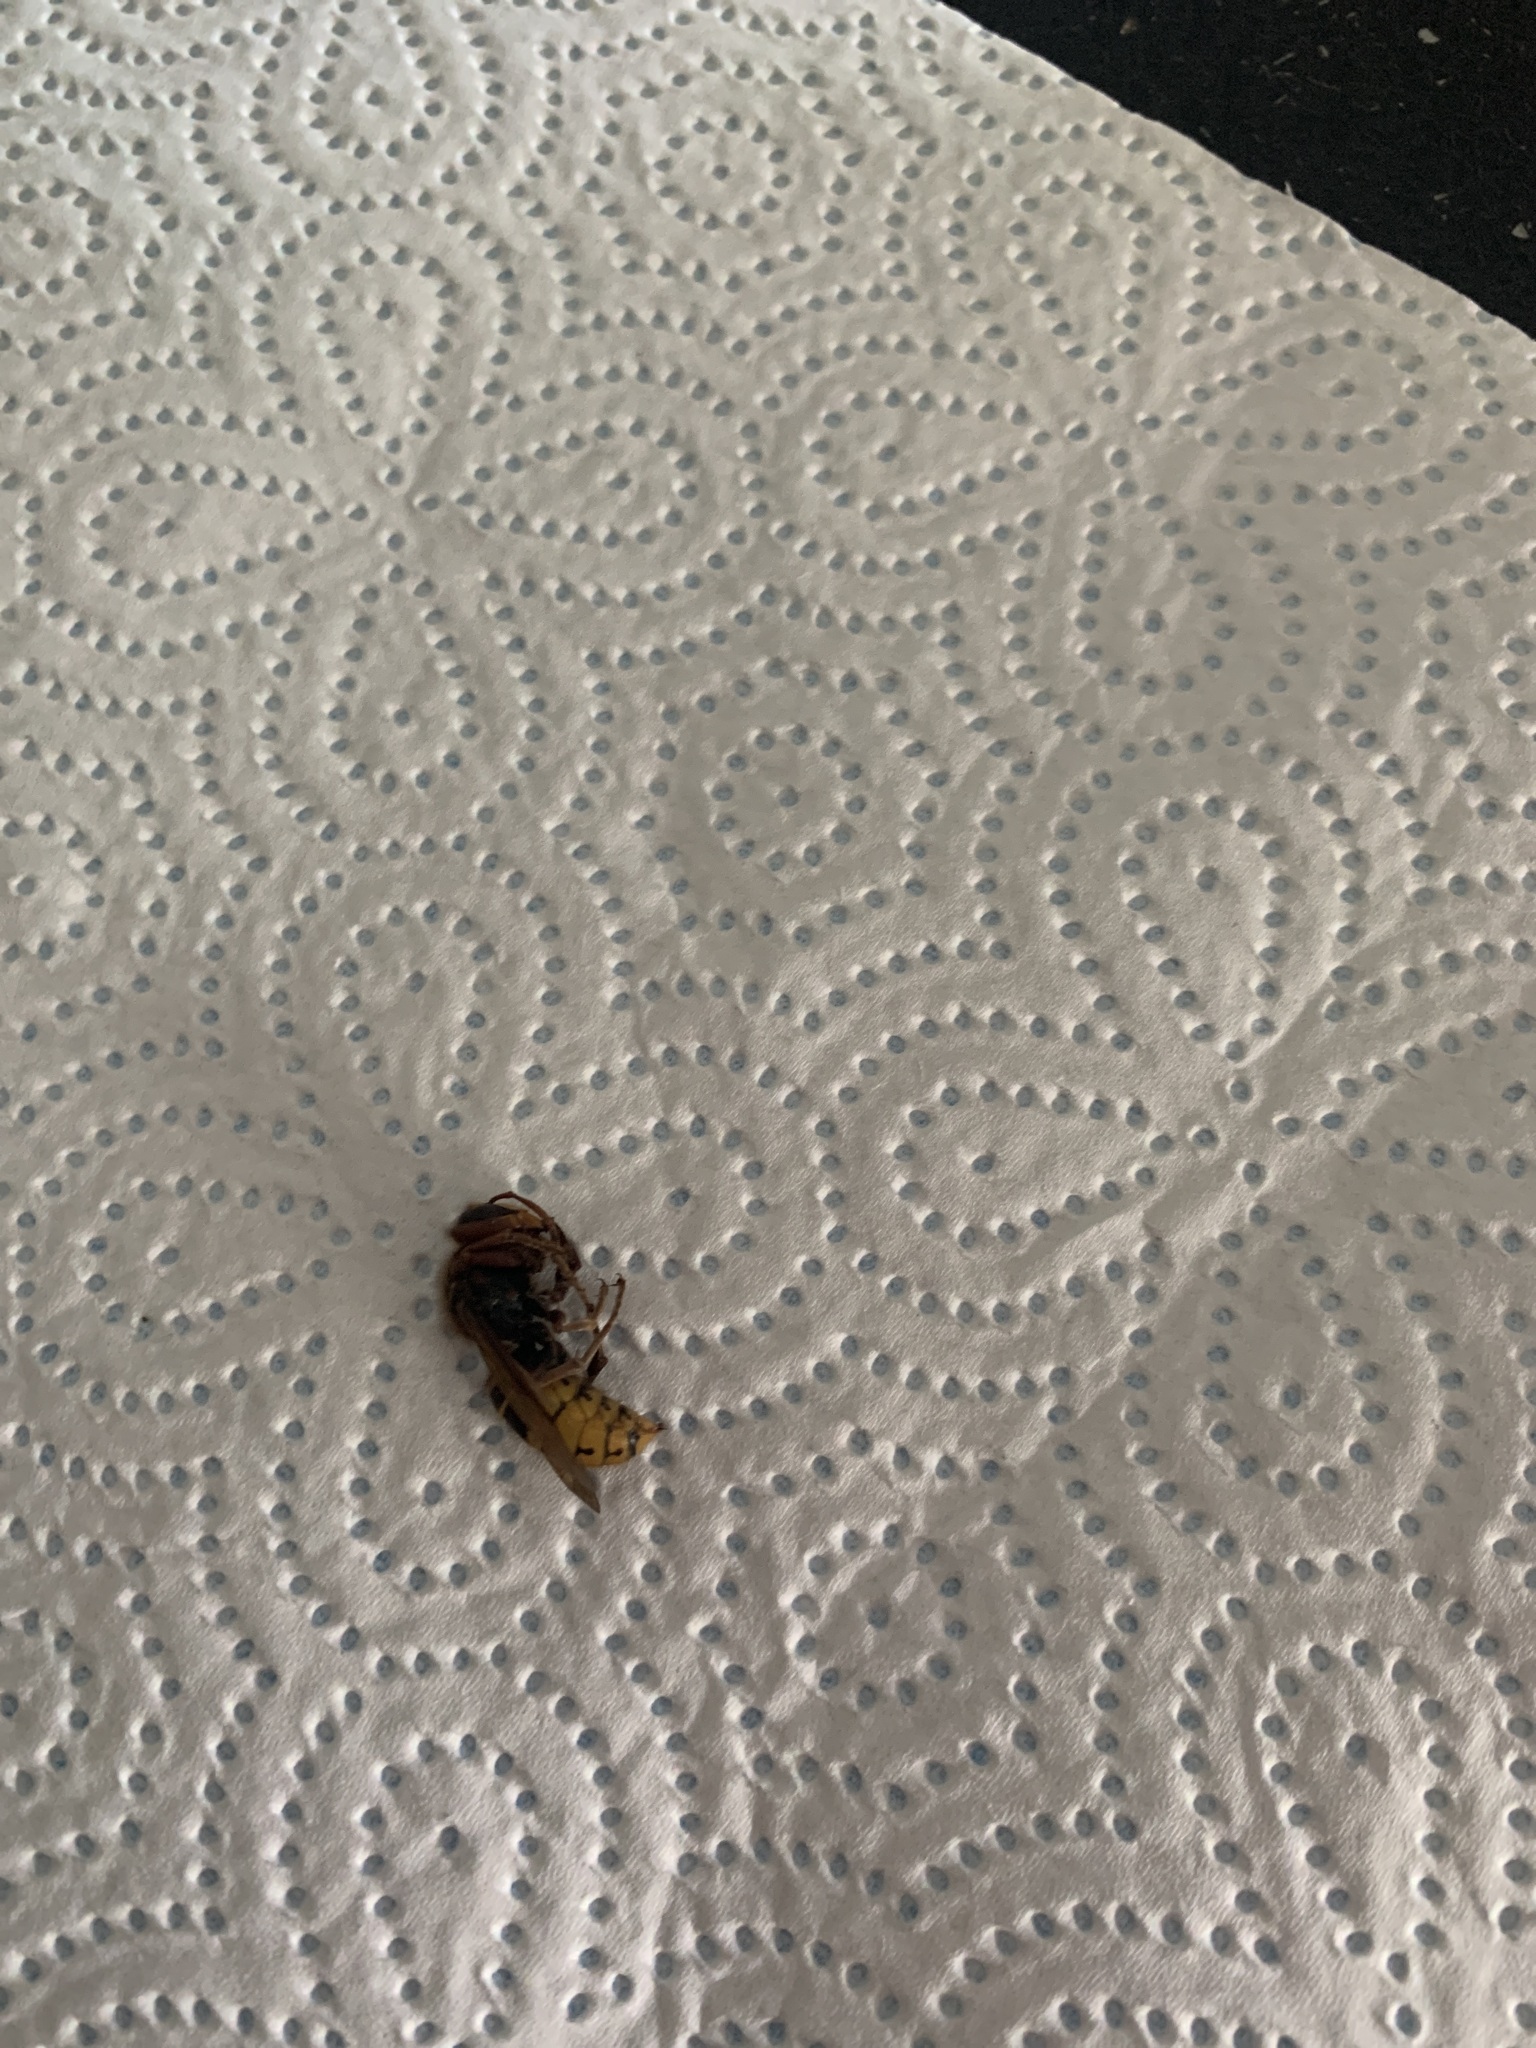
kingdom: Animalia
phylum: Arthropoda
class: Insecta
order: Hymenoptera
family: Vespidae
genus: Vespa
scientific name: Vespa crabro
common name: Hornet
